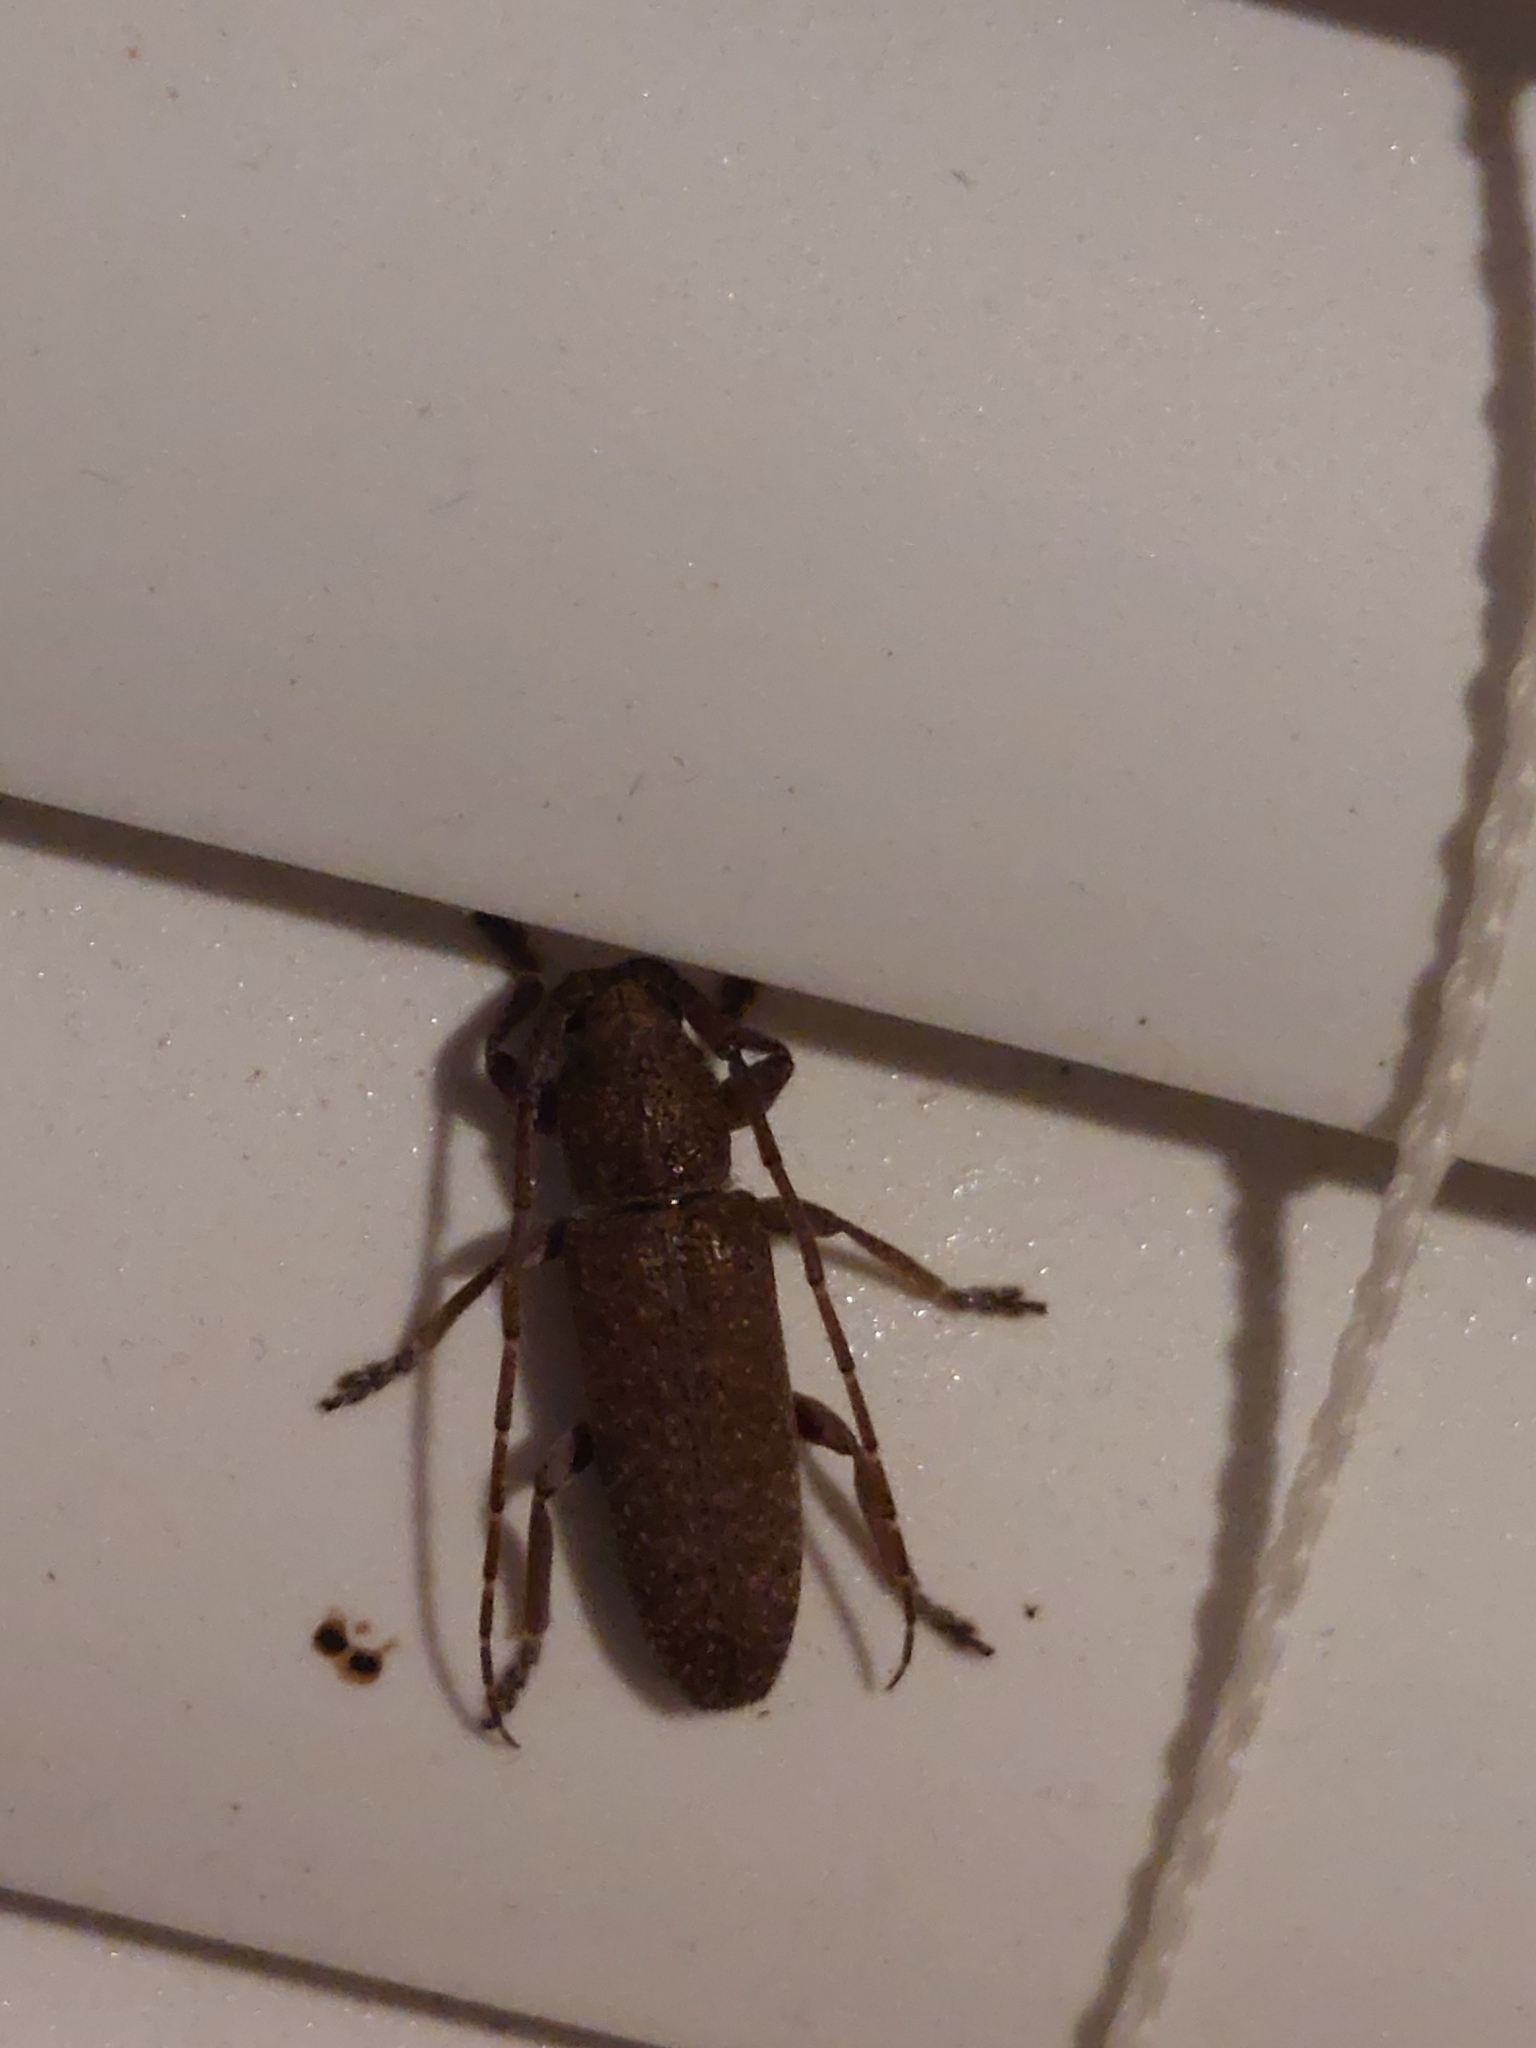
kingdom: Animalia
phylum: Arthropoda
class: Insecta
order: Coleoptera
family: Cerambycidae
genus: Ataxia
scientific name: Ataxia falli
